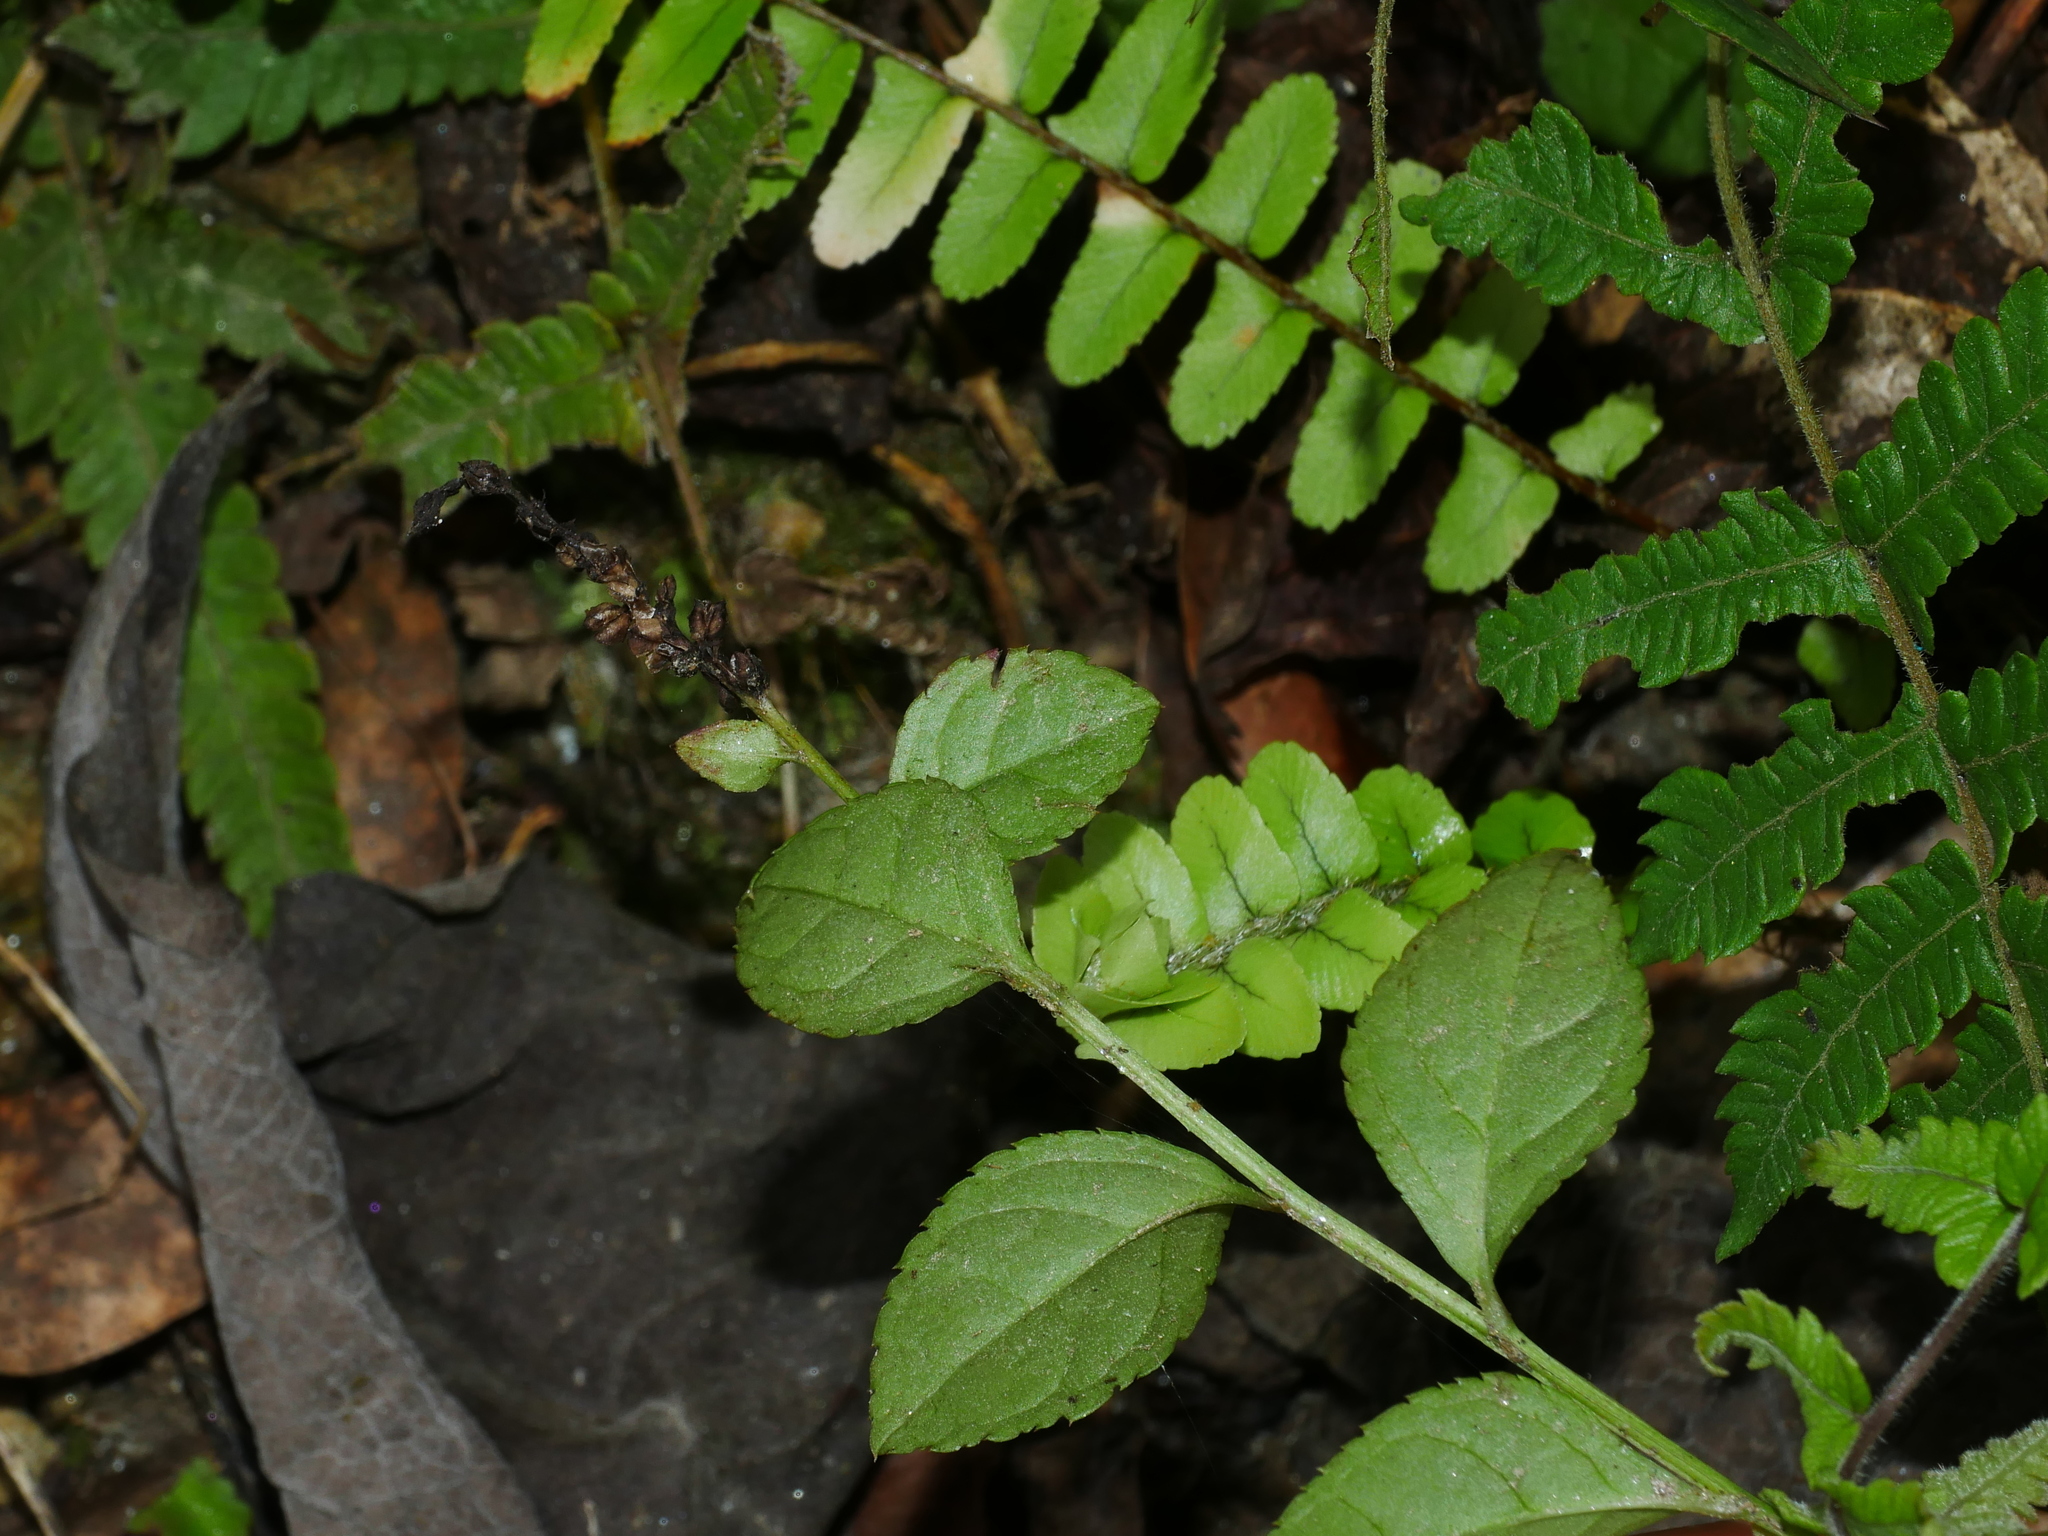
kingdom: Plantae
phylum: Tracheophyta
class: Magnoliopsida
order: Lamiales
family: Plantaginaceae
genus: Veronicastrum
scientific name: Veronicastrum loshanense
